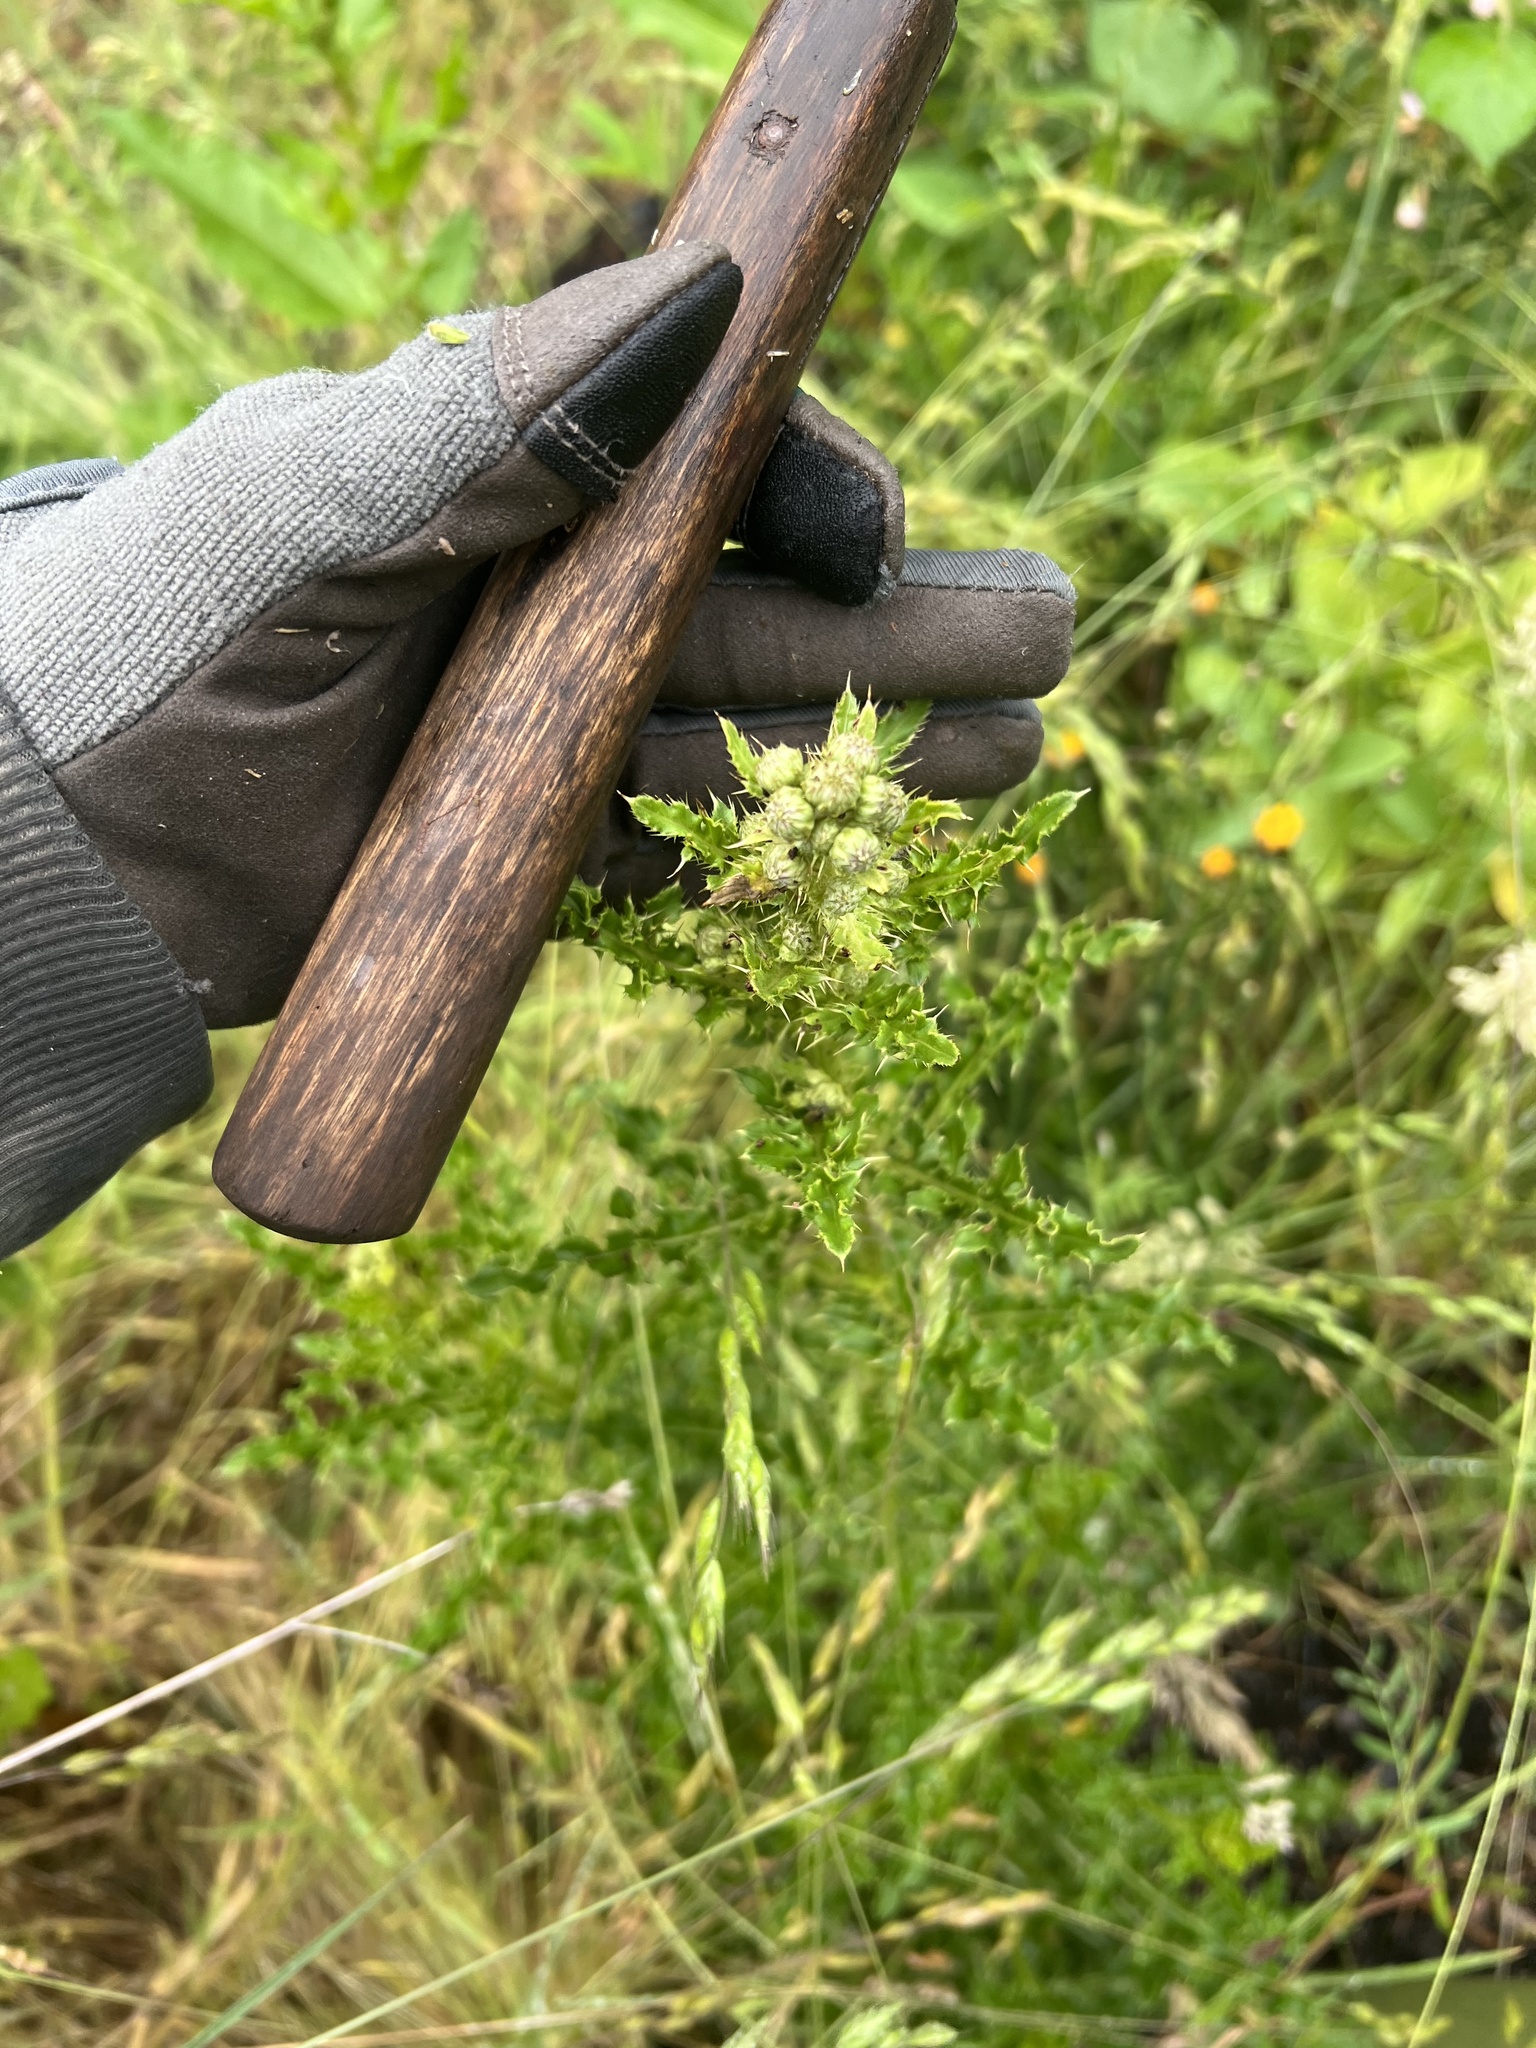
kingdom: Plantae
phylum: Tracheophyta
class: Magnoliopsida
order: Asterales
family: Asteraceae
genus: Cirsium
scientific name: Cirsium arvense
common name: Creeping thistle
